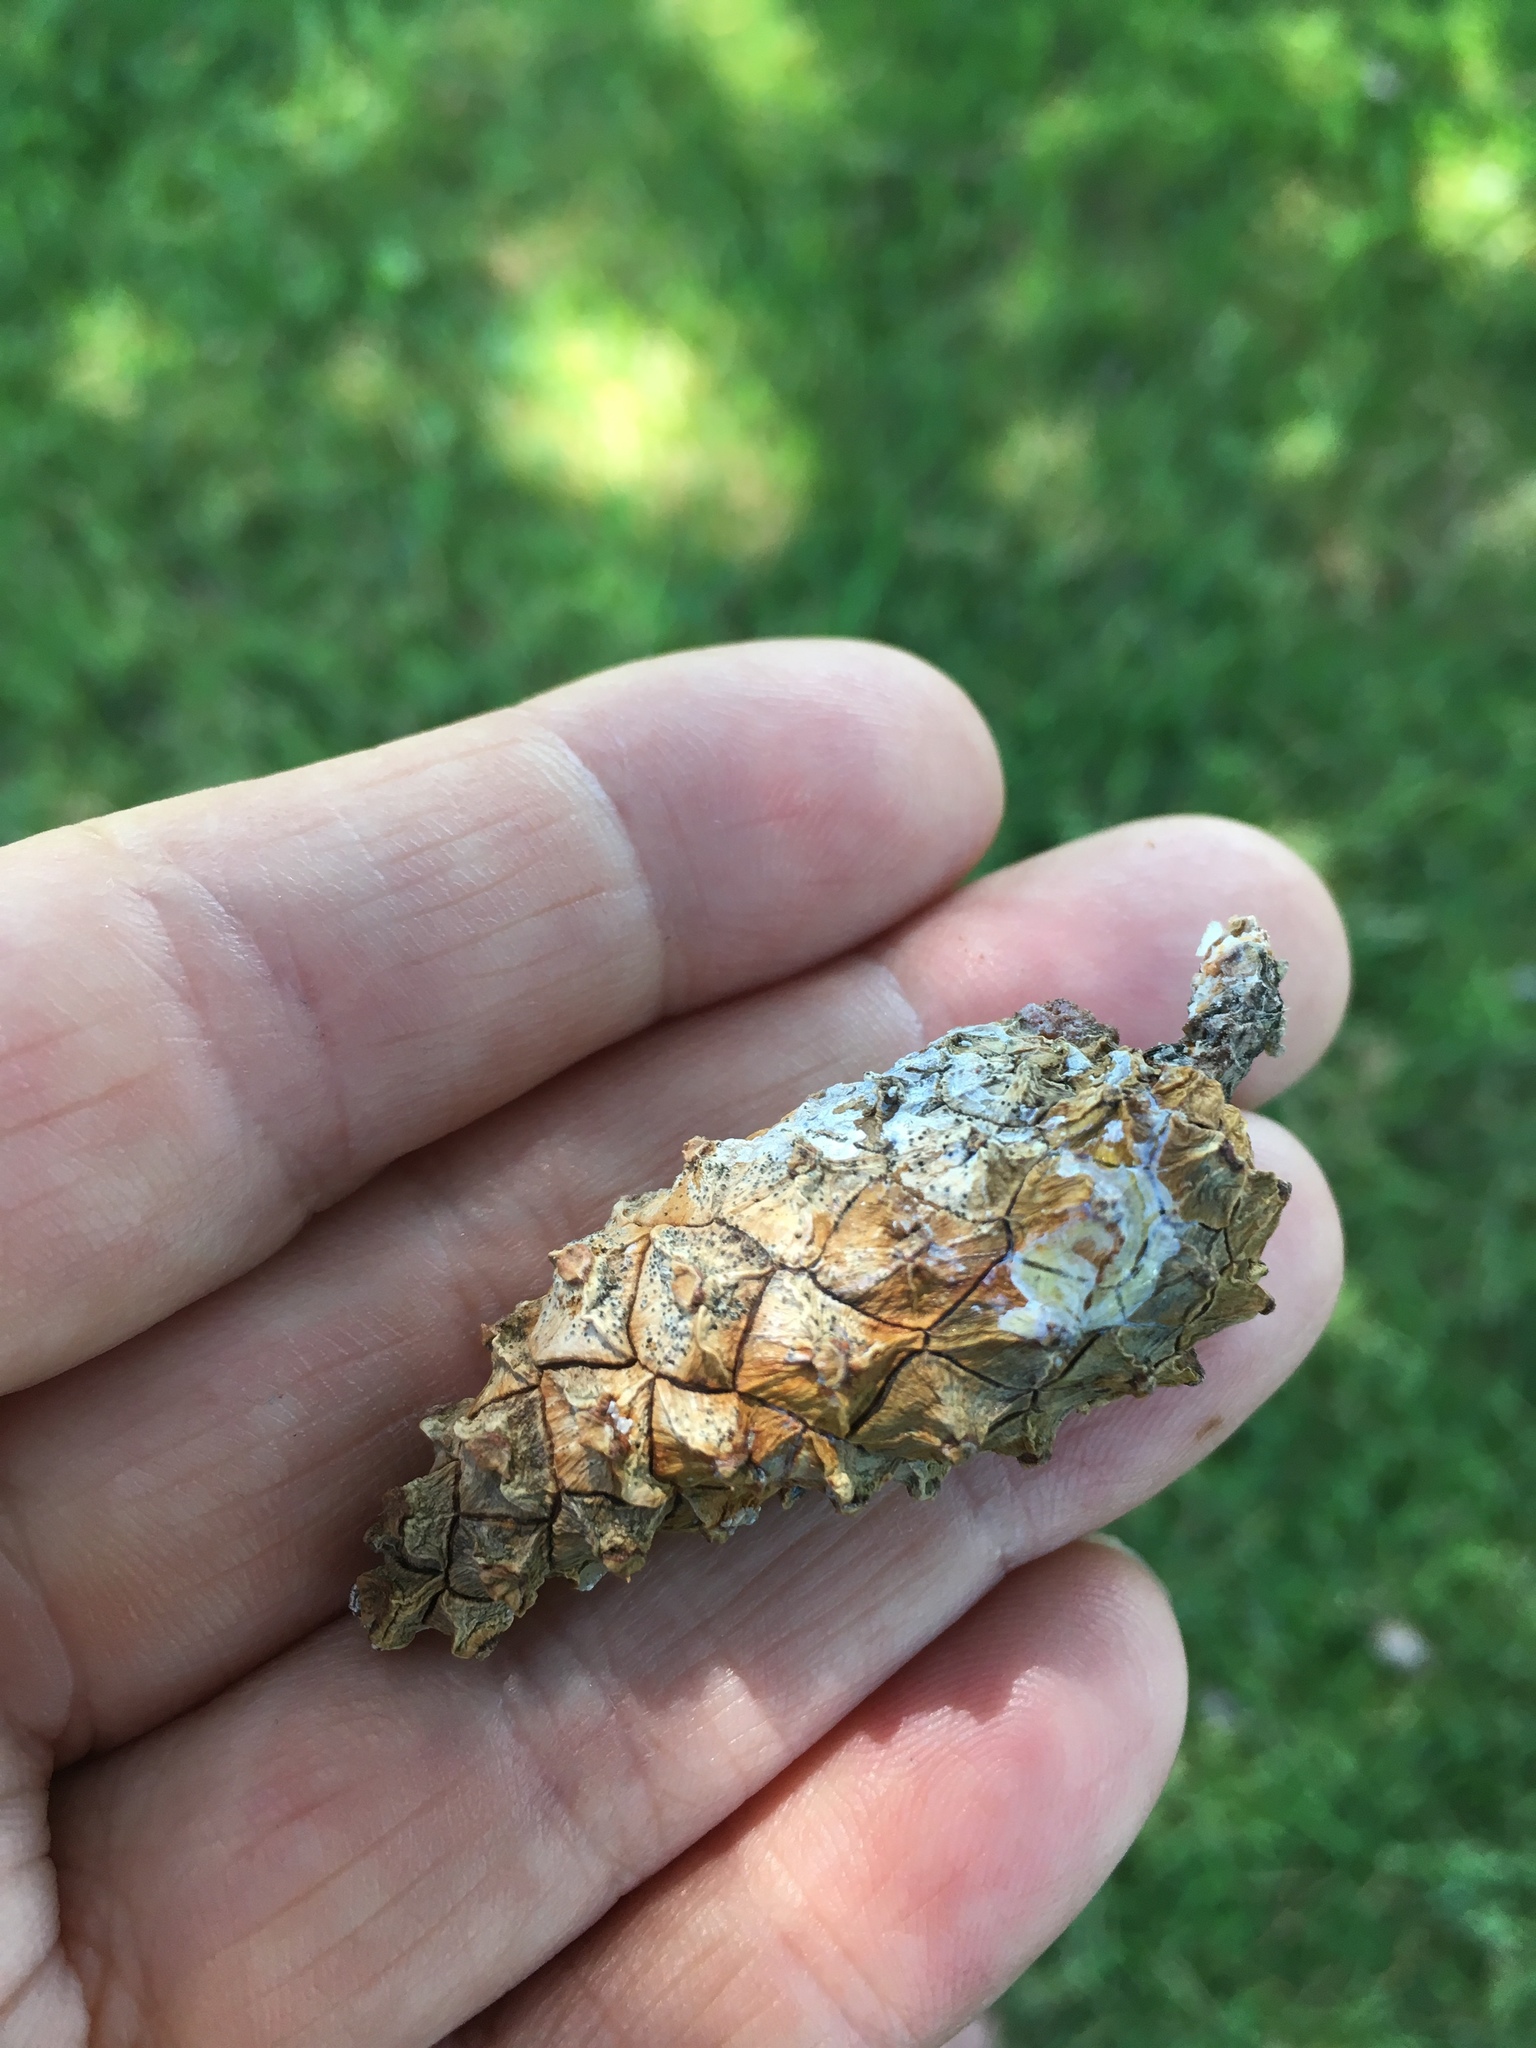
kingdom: Plantae
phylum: Tracheophyta
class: Pinopsida
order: Pinales
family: Pinaceae
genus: Pinus
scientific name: Pinus sylvestris
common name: Scots pine
